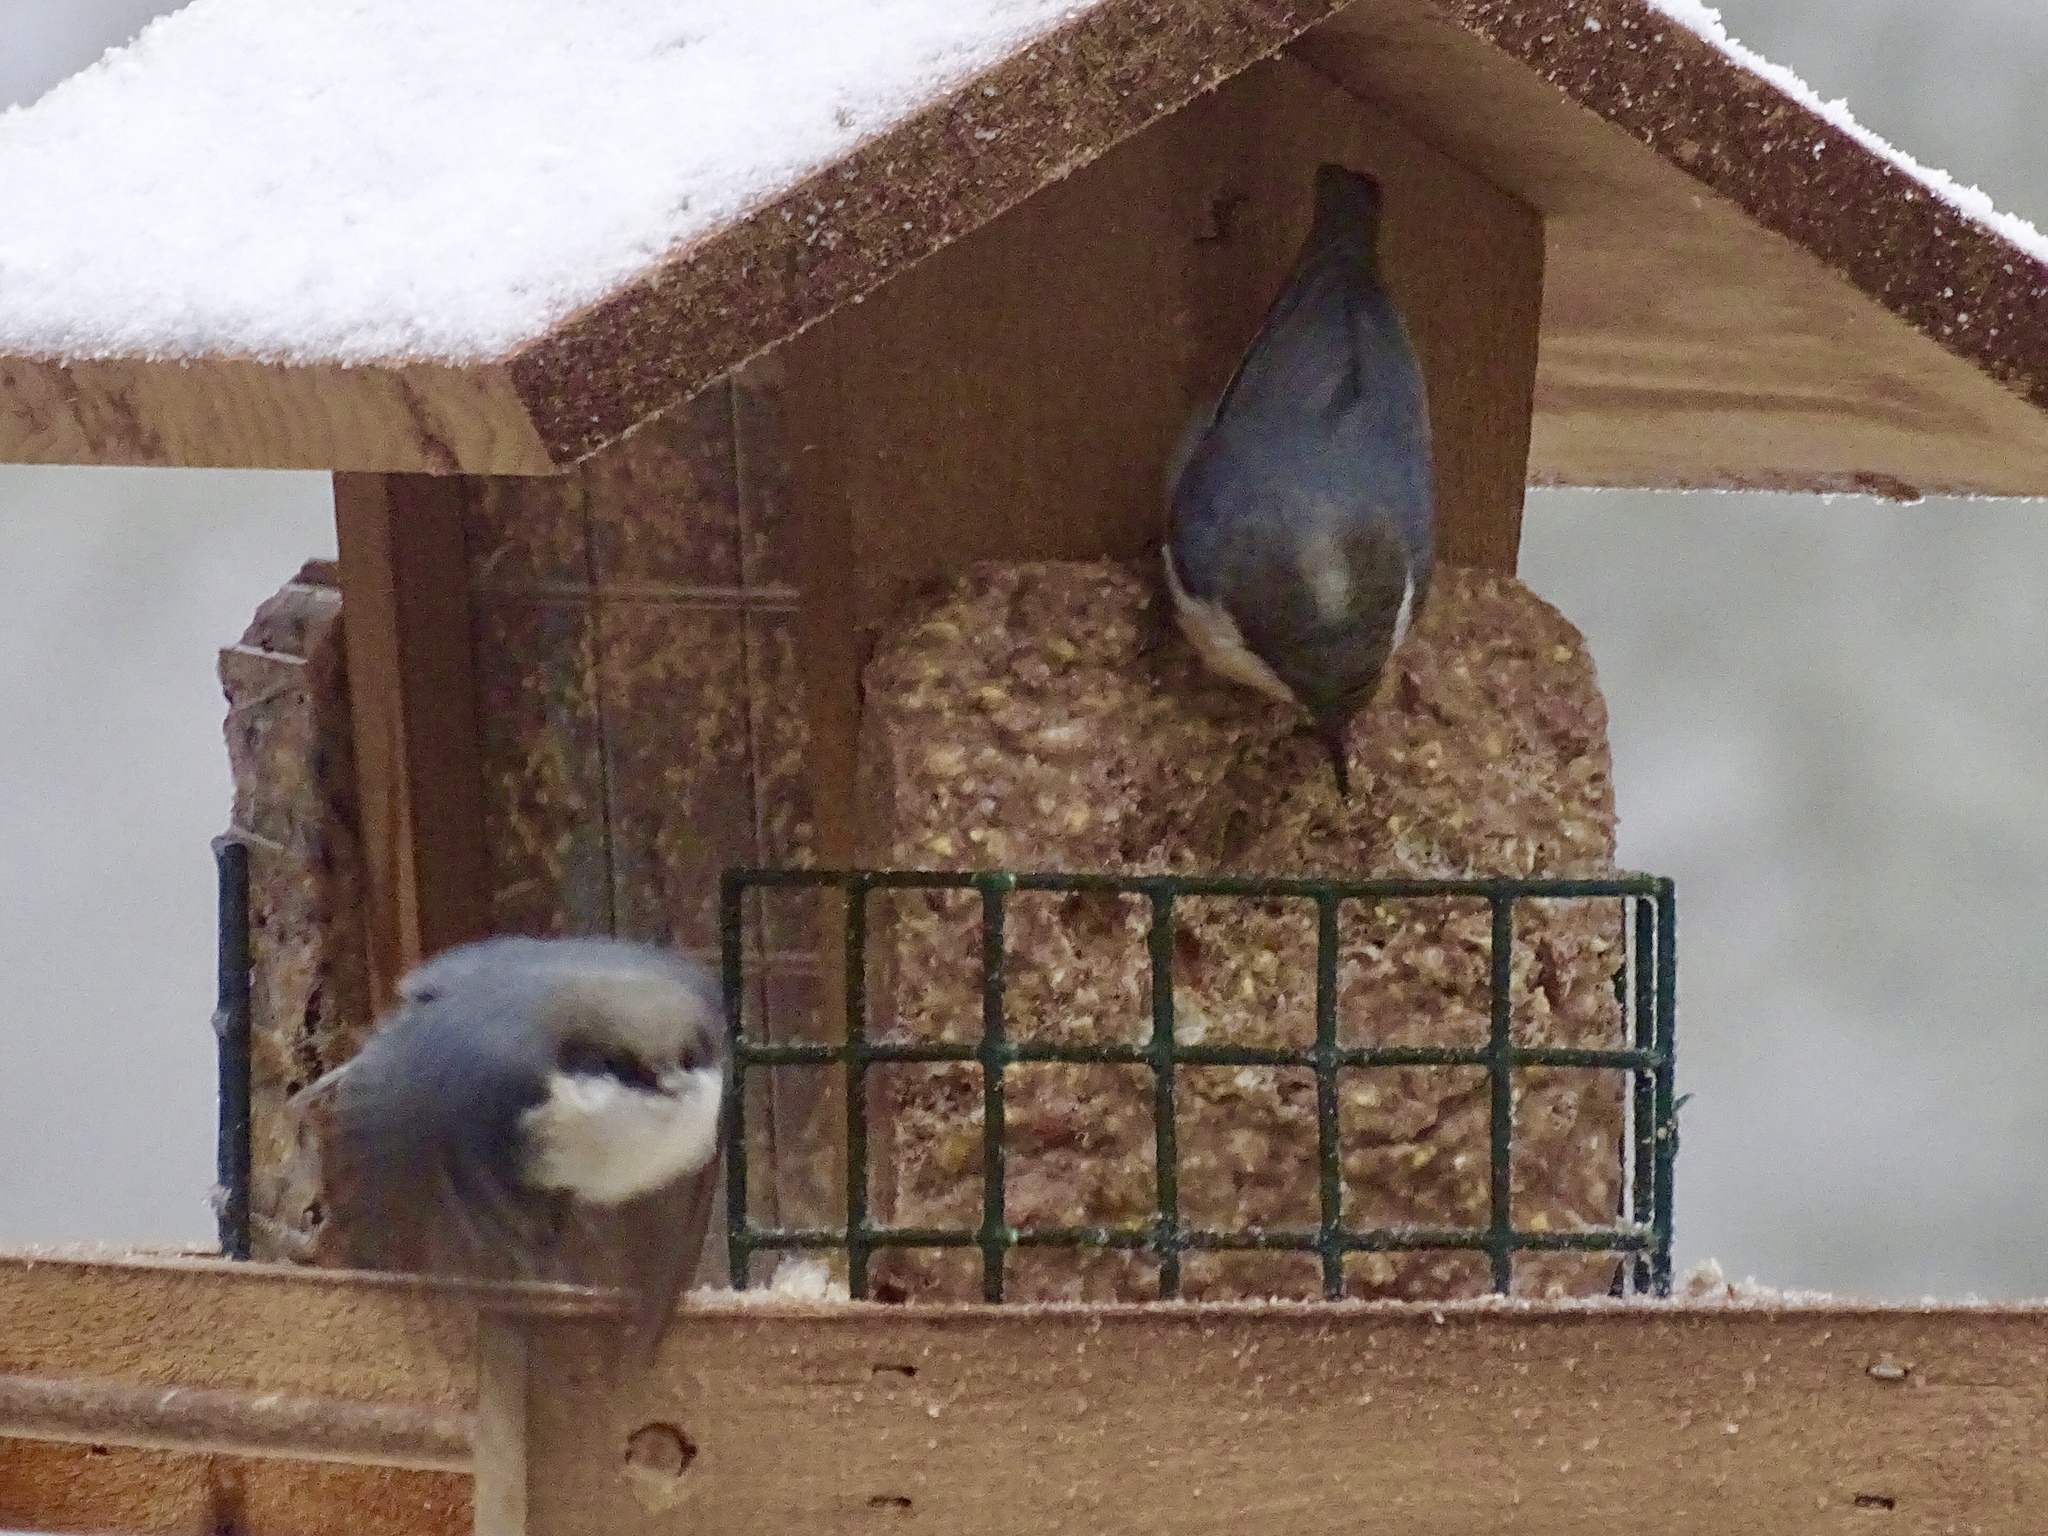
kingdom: Animalia
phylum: Chordata
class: Aves
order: Passeriformes
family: Sittidae
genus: Sitta
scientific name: Sitta pygmaea
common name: Pygmy nuthatch
